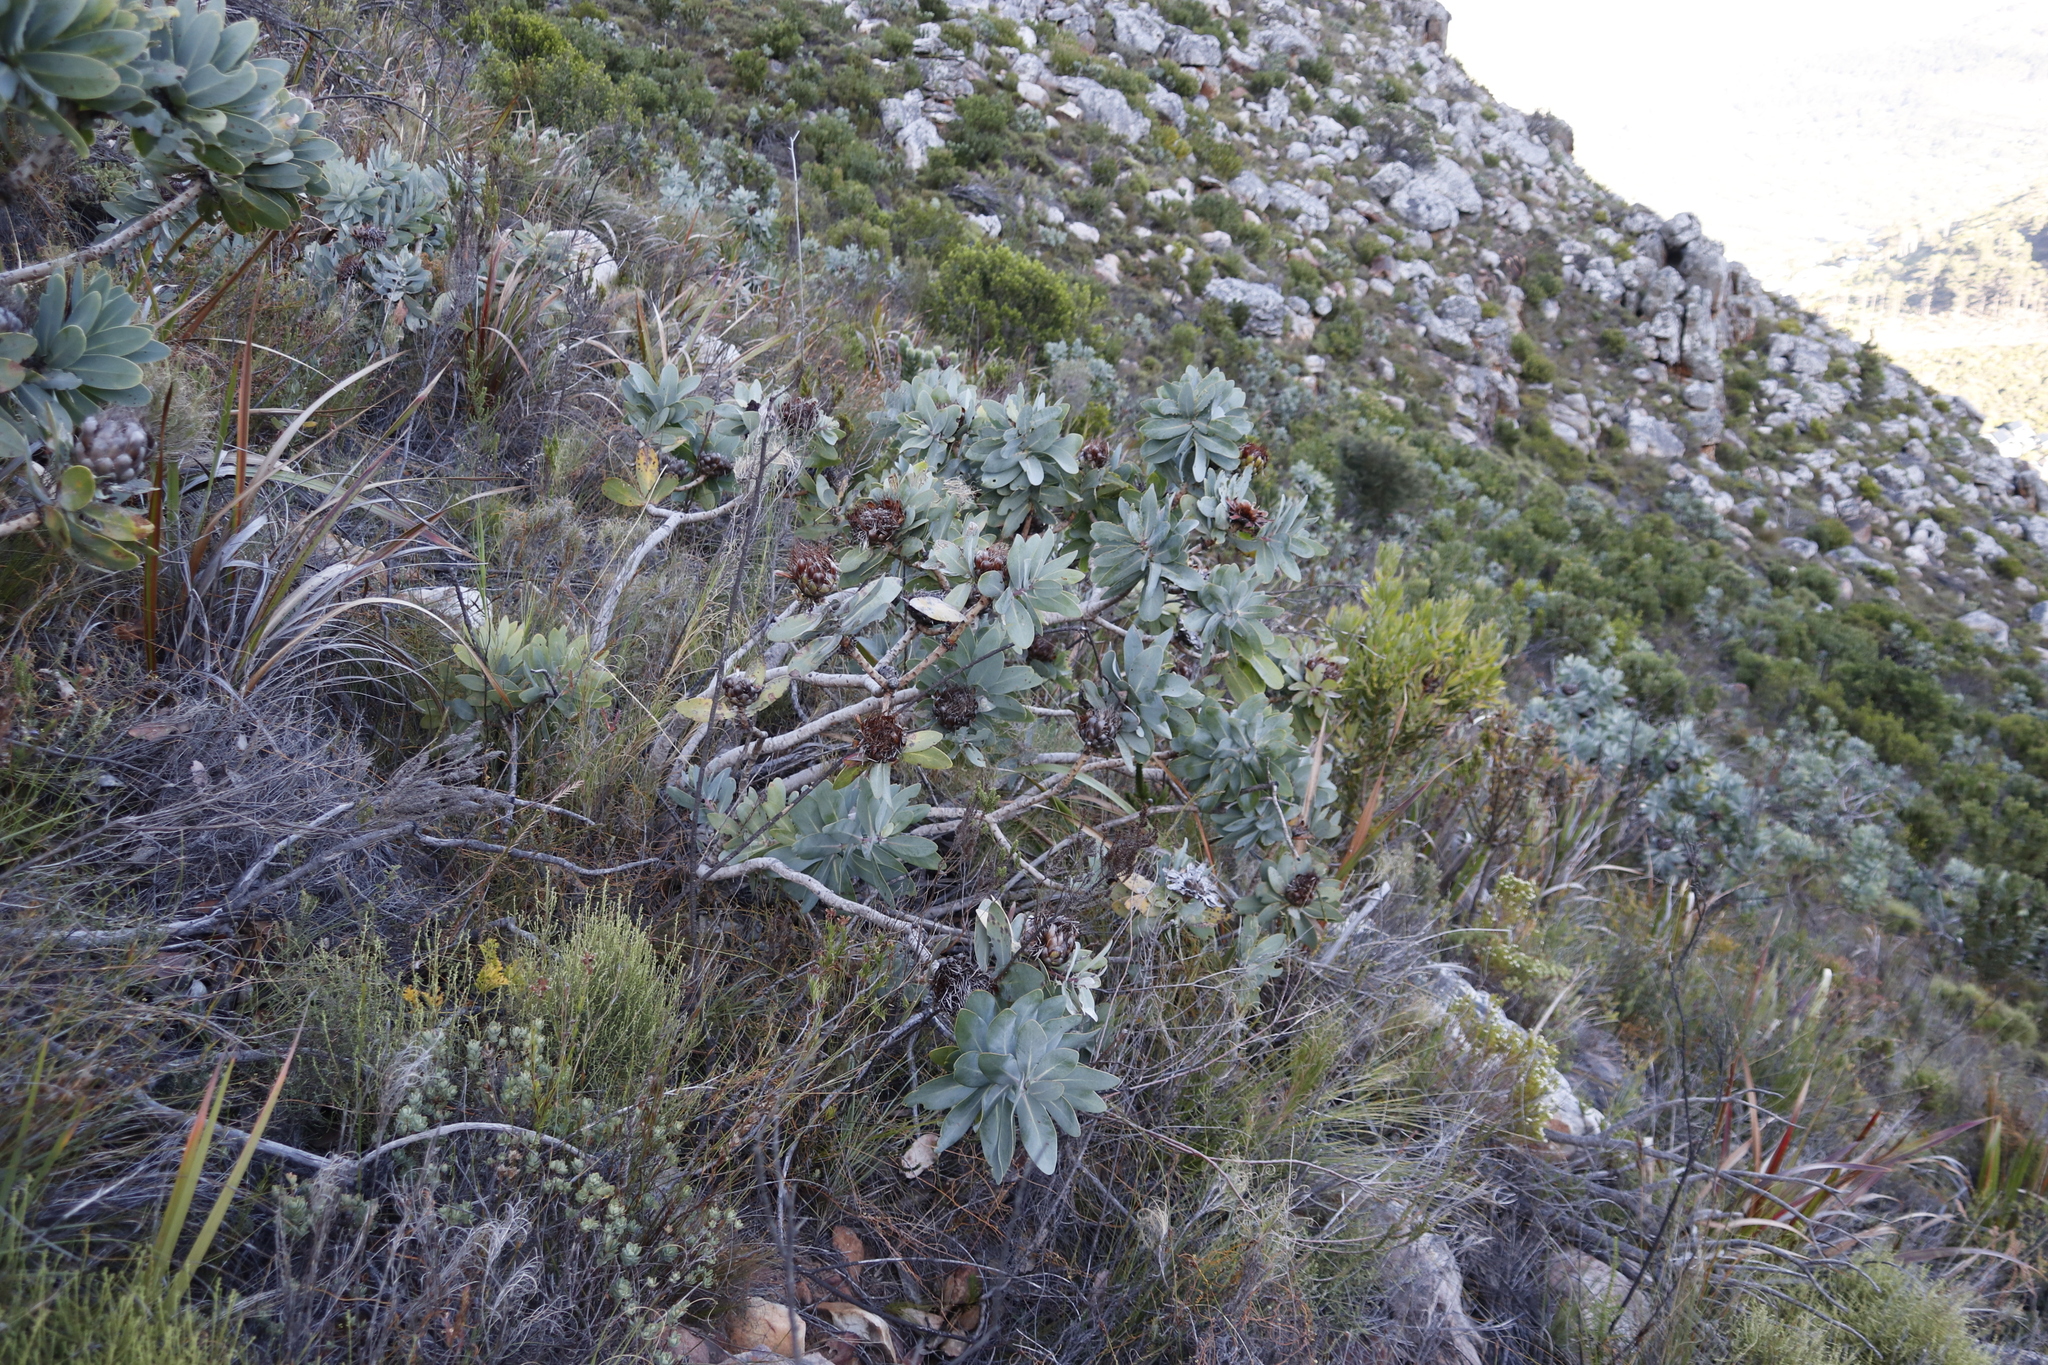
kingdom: Plantae
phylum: Tracheophyta
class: Magnoliopsida
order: Proteales
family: Proteaceae
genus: Protea
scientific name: Protea nitida
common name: Tree protea
